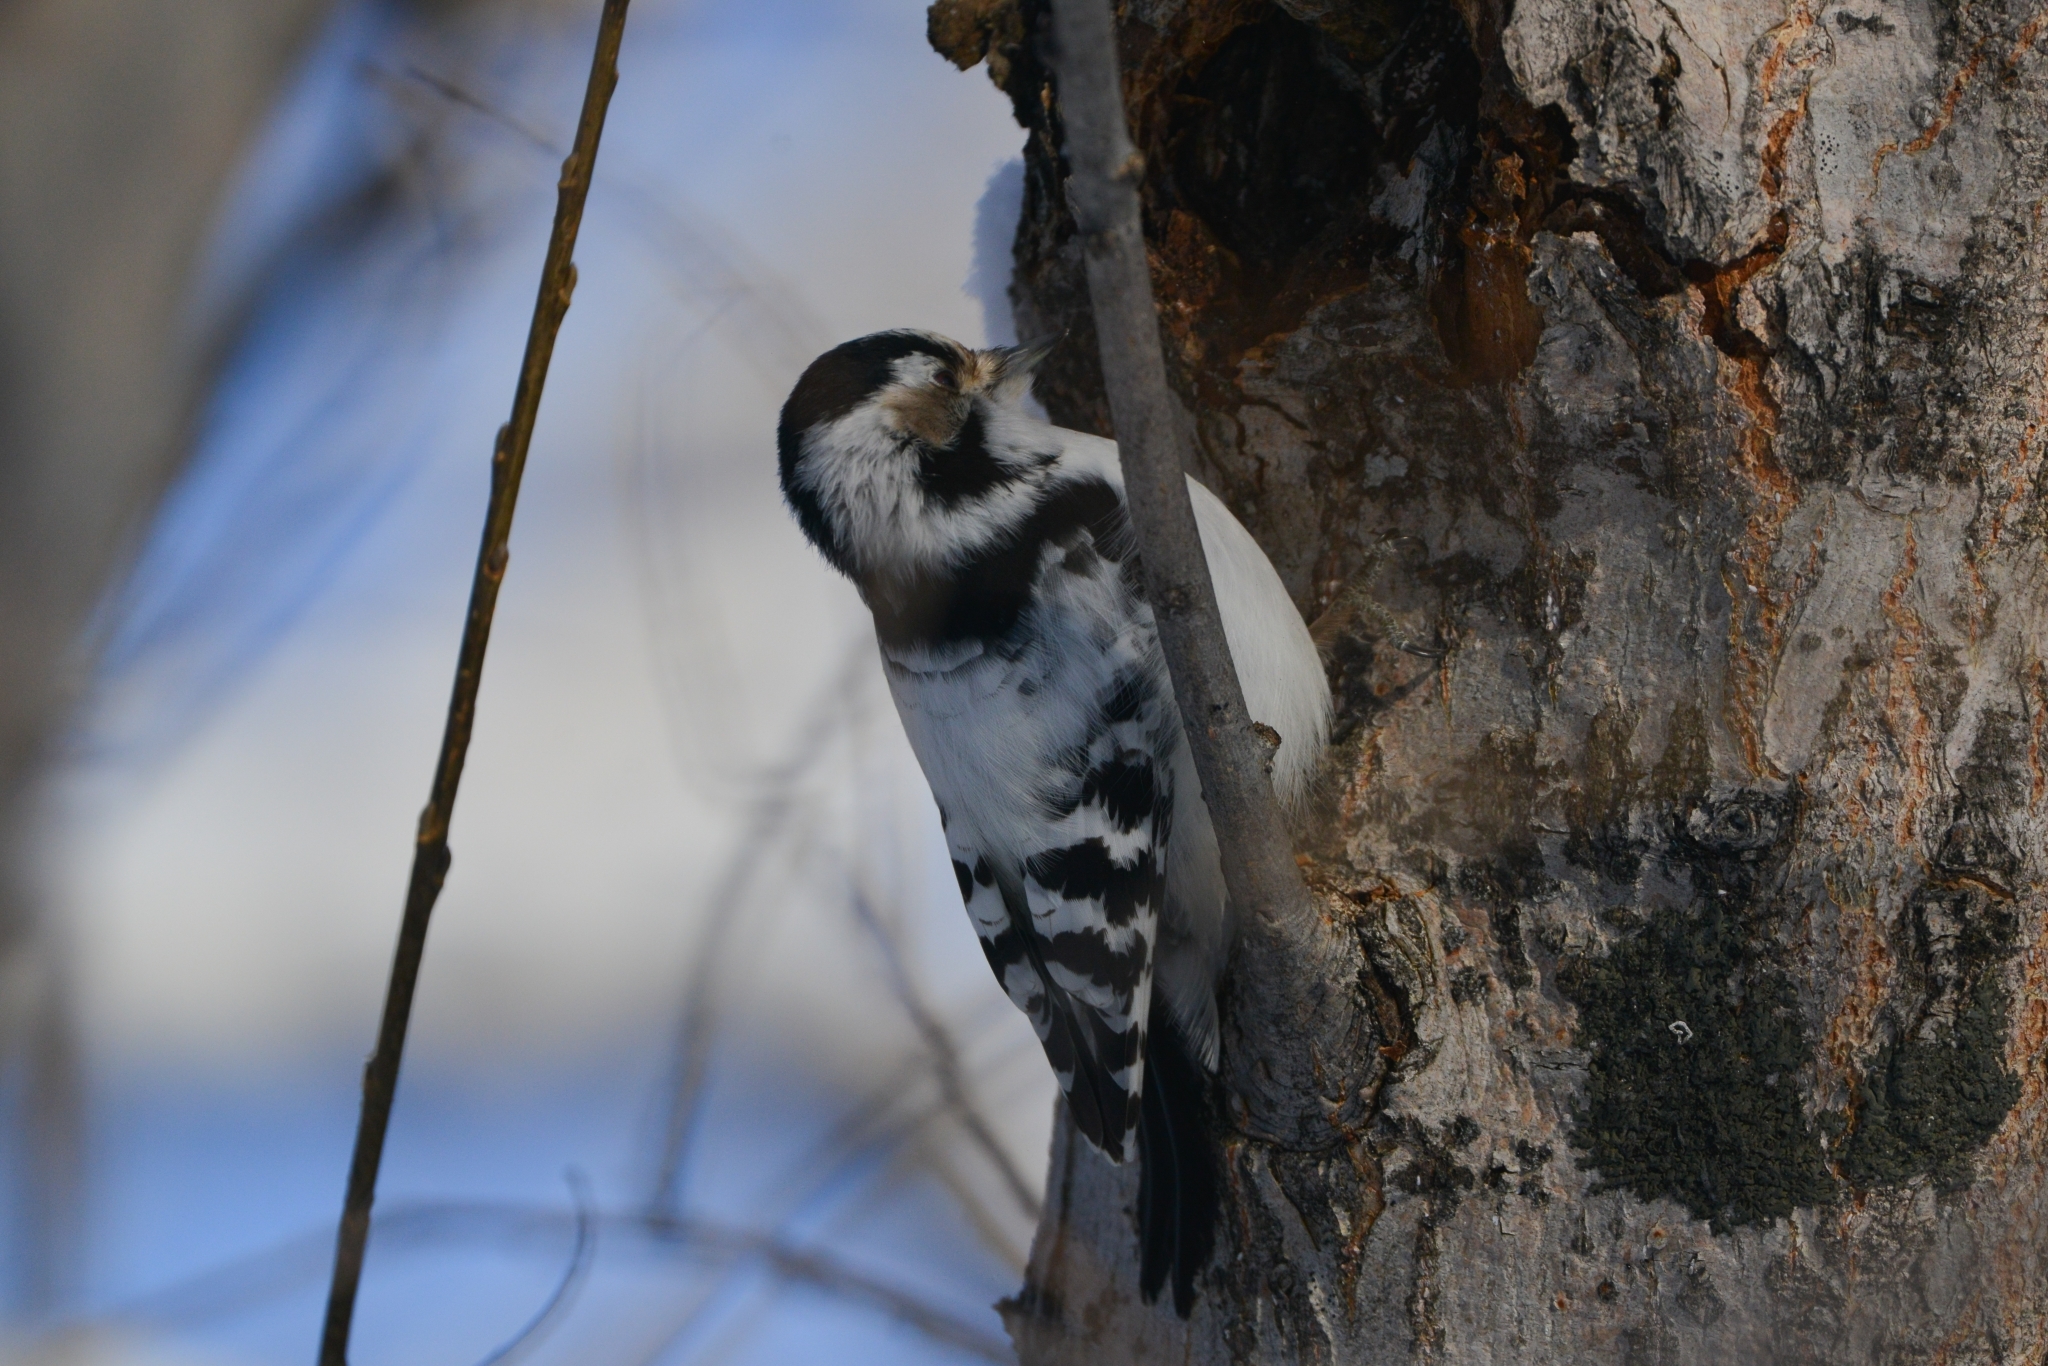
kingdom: Animalia
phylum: Chordata
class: Aves
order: Piciformes
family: Picidae
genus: Dryobates
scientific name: Dryobates minor
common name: Lesser spotted woodpecker
